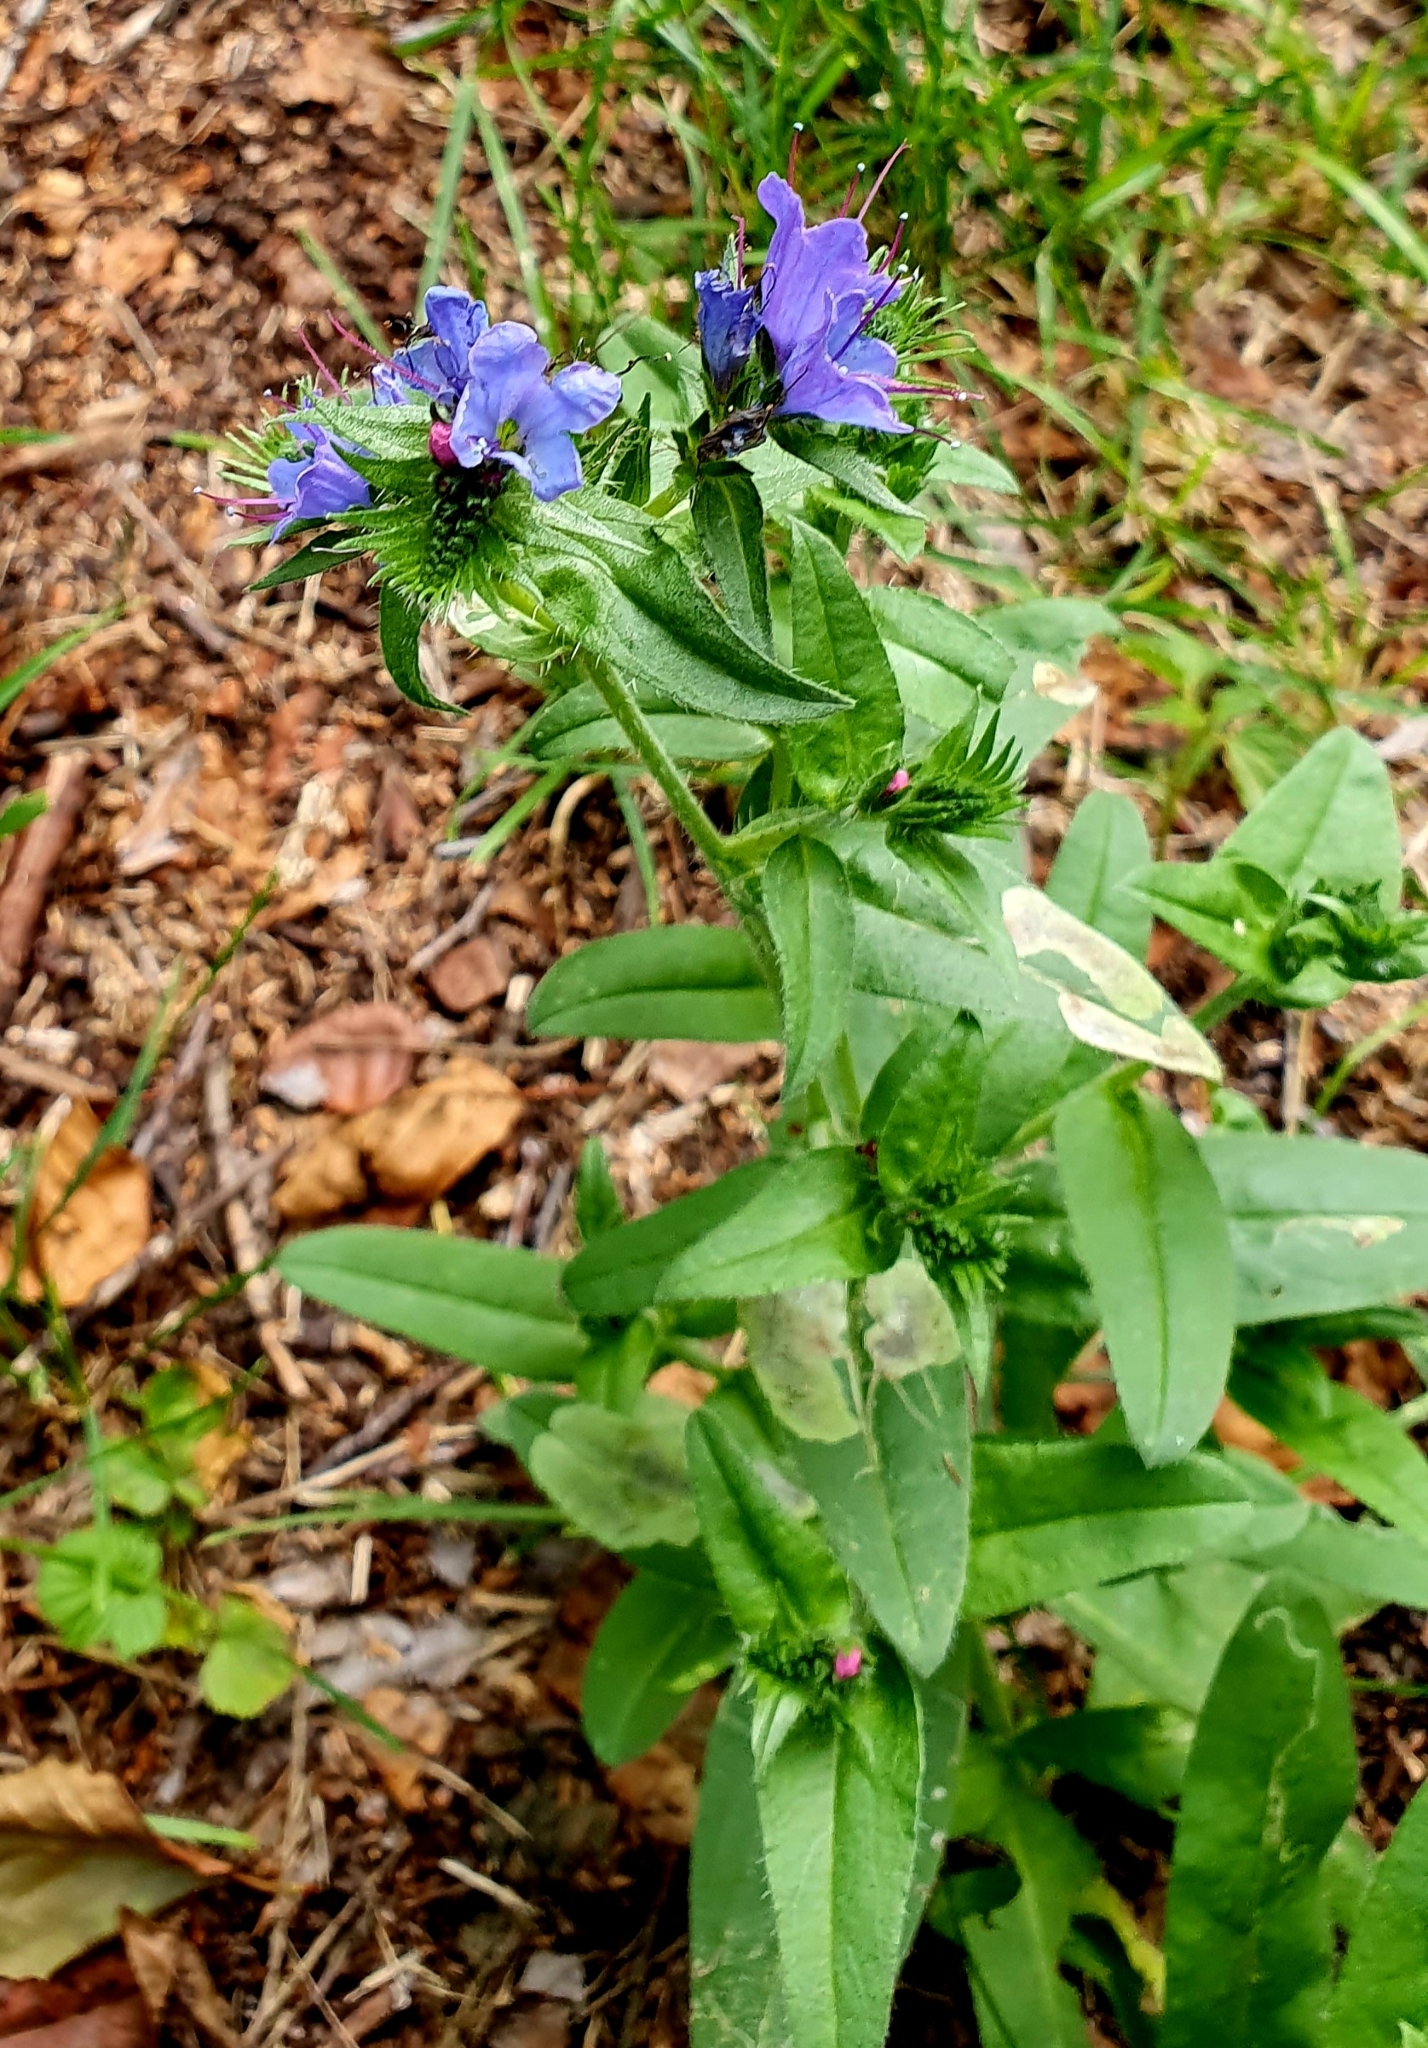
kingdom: Plantae
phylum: Tracheophyta
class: Magnoliopsida
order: Boraginales
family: Boraginaceae
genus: Echium
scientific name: Echium vulgare
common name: Common viper's bugloss
